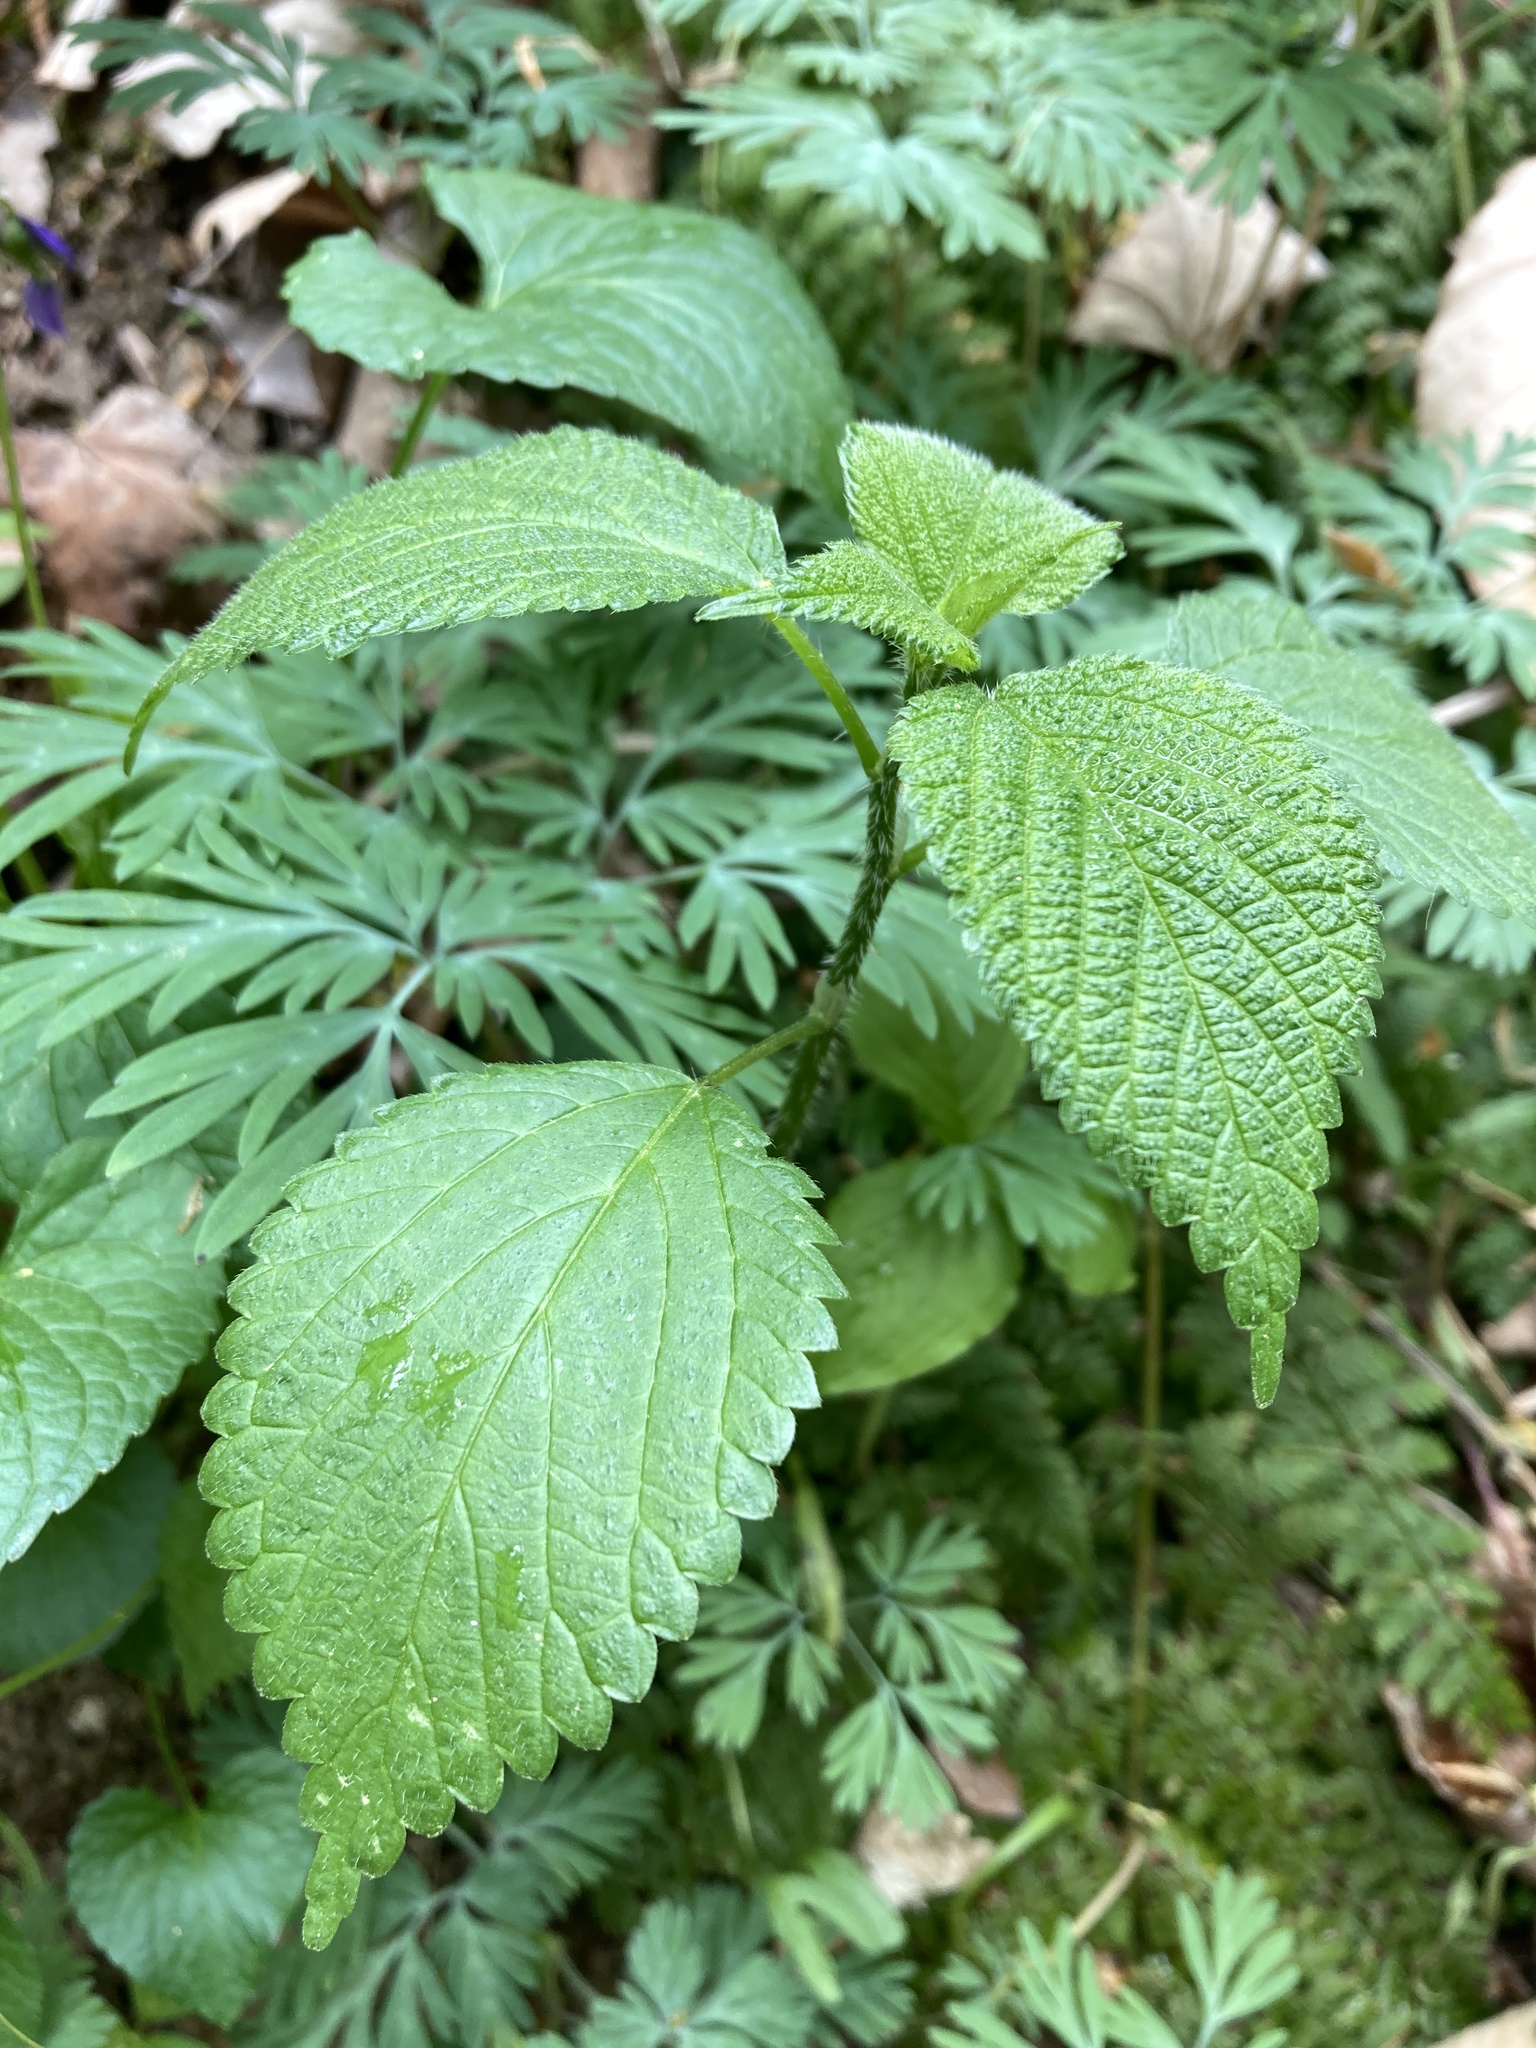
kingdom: Plantae
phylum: Tracheophyta
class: Magnoliopsida
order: Rosales
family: Urticaceae
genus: Laportea
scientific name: Laportea canadensis
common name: Canada nettle
